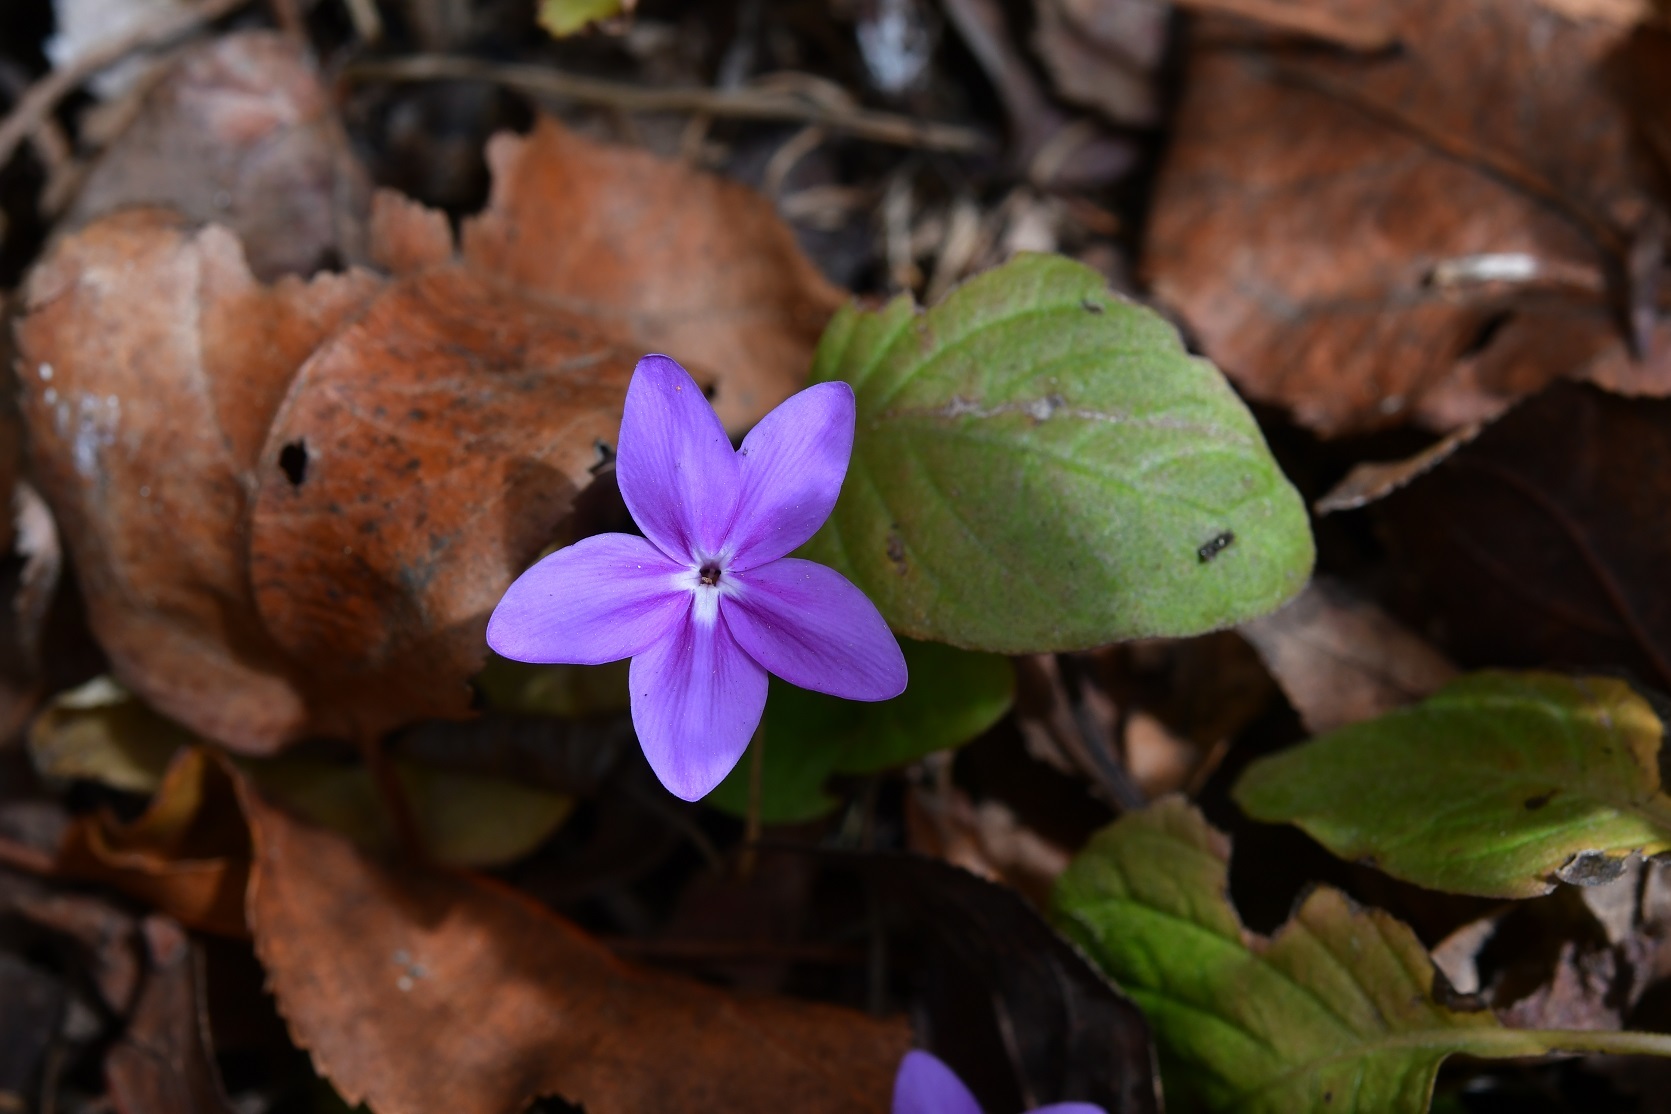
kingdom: Plantae
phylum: Tracheophyta
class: Magnoliopsida
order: Lamiales
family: Acanthaceae
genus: Pseuderanthemum
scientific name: Pseuderanthemum praecox
